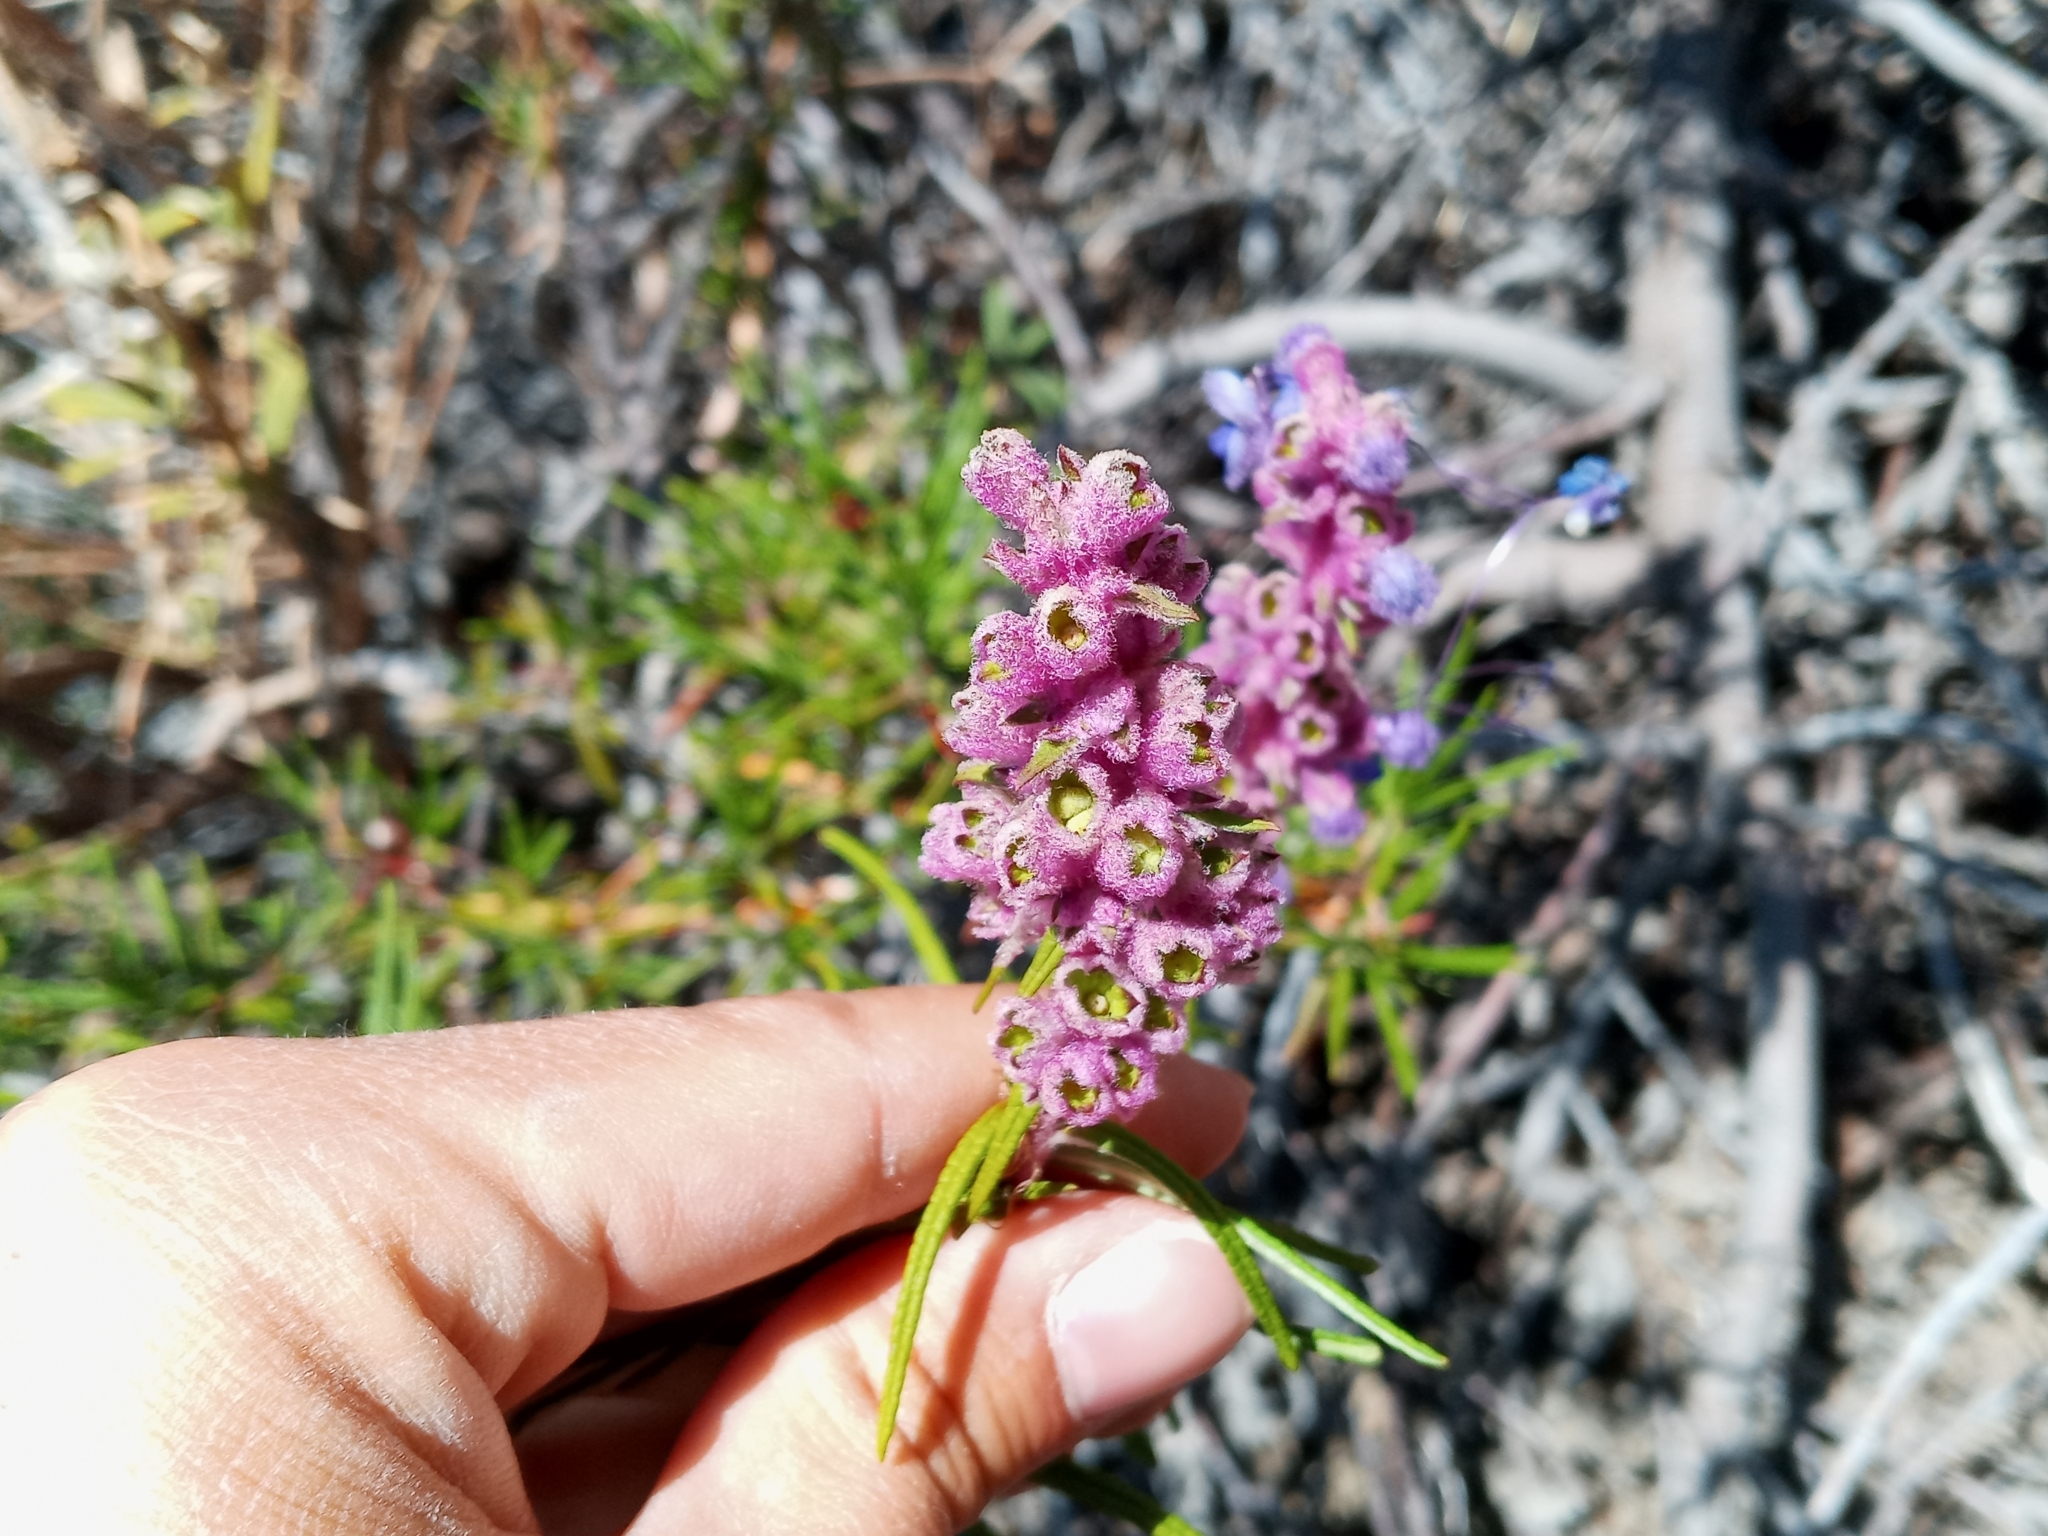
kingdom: Plantae
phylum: Tracheophyta
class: Magnoliopsida
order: Lamiales
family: Lamiaceae
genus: Trichostema
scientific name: Trichostema lanatum
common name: Woolly bluecurls
